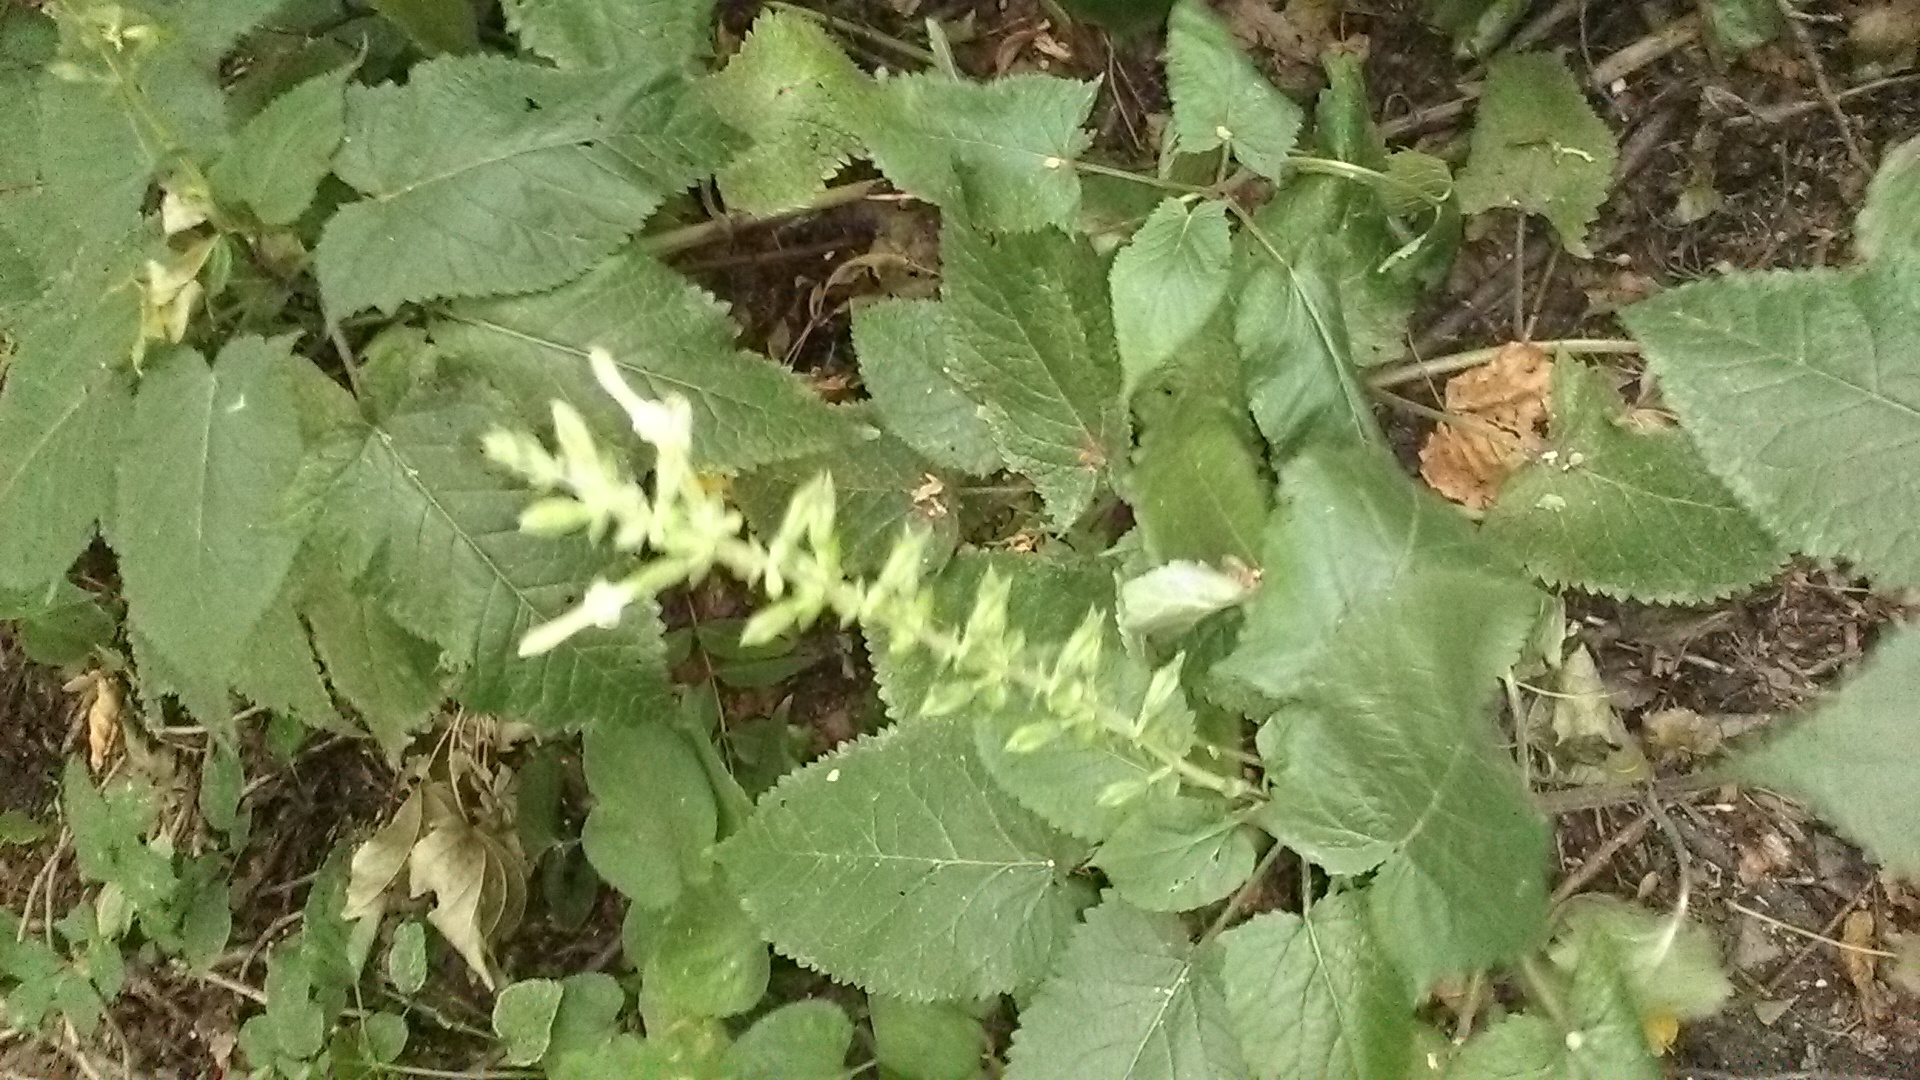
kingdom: Plantae
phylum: Tracheophyta
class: Magnoliopsida
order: Lamiales
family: Lamiaceae
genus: Salvia
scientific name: Salvia glutinosa
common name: Sticky clary
